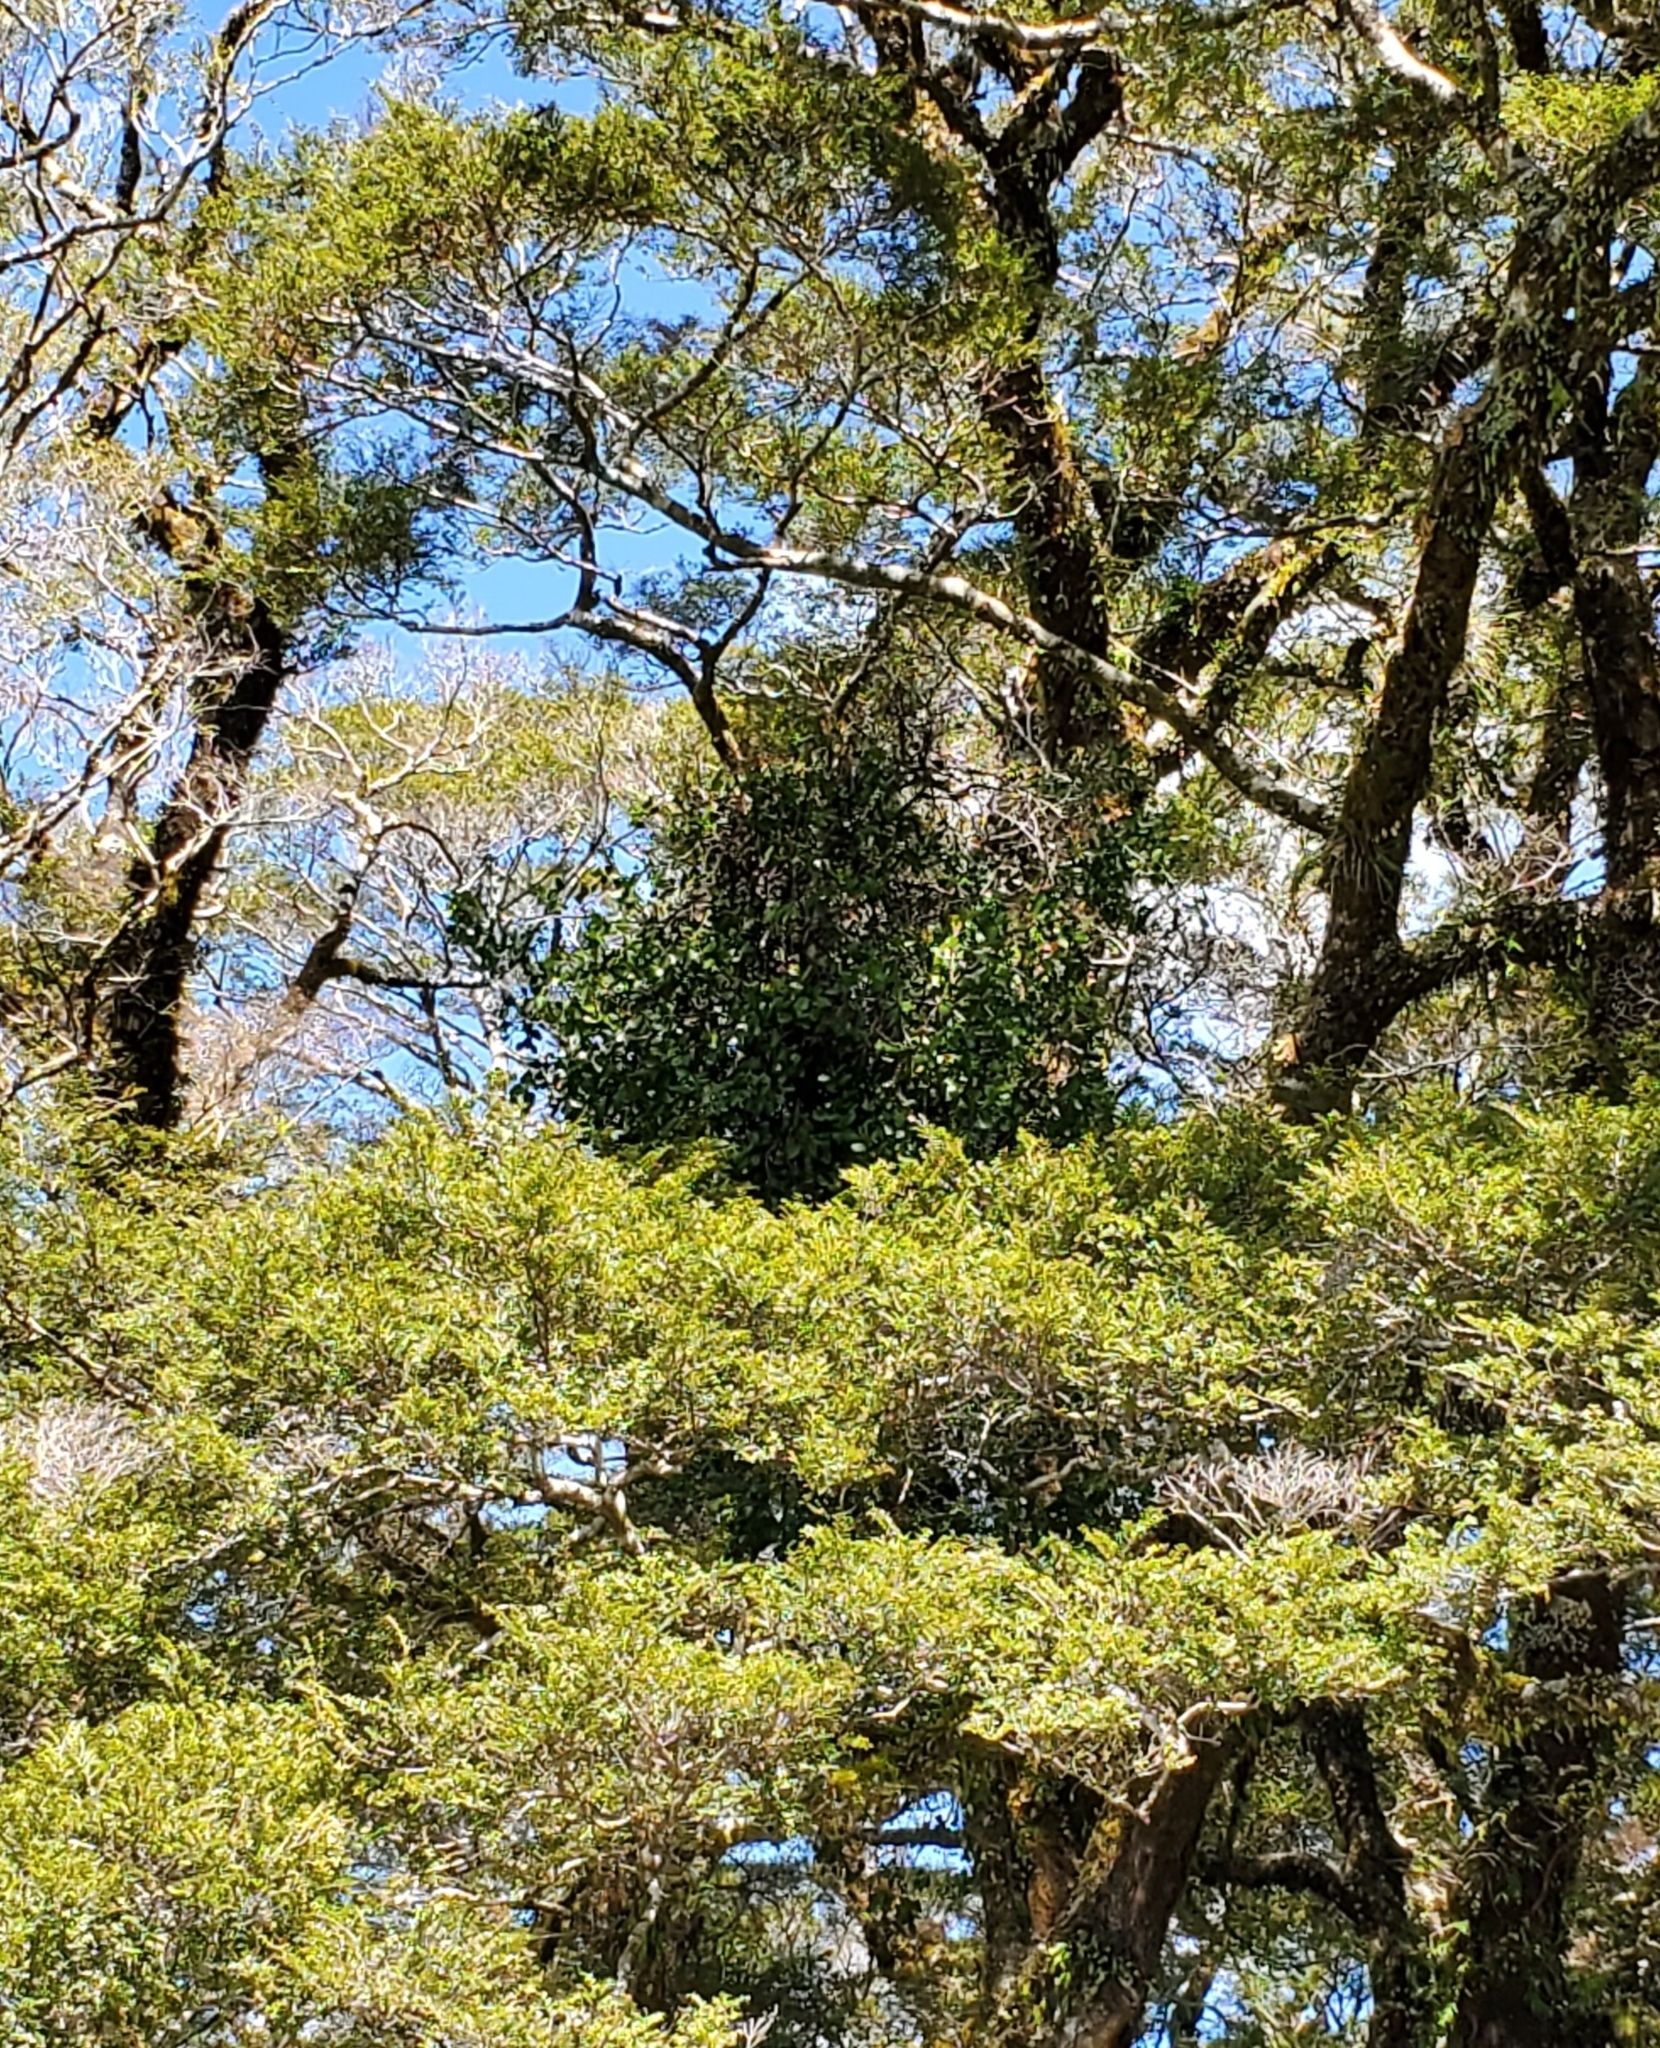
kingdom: Plantae
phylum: Tracheophyta
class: Magnoliopsida
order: Santalales
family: Loranthaceae
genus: Peraxilla
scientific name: Peraxilla colensoi
